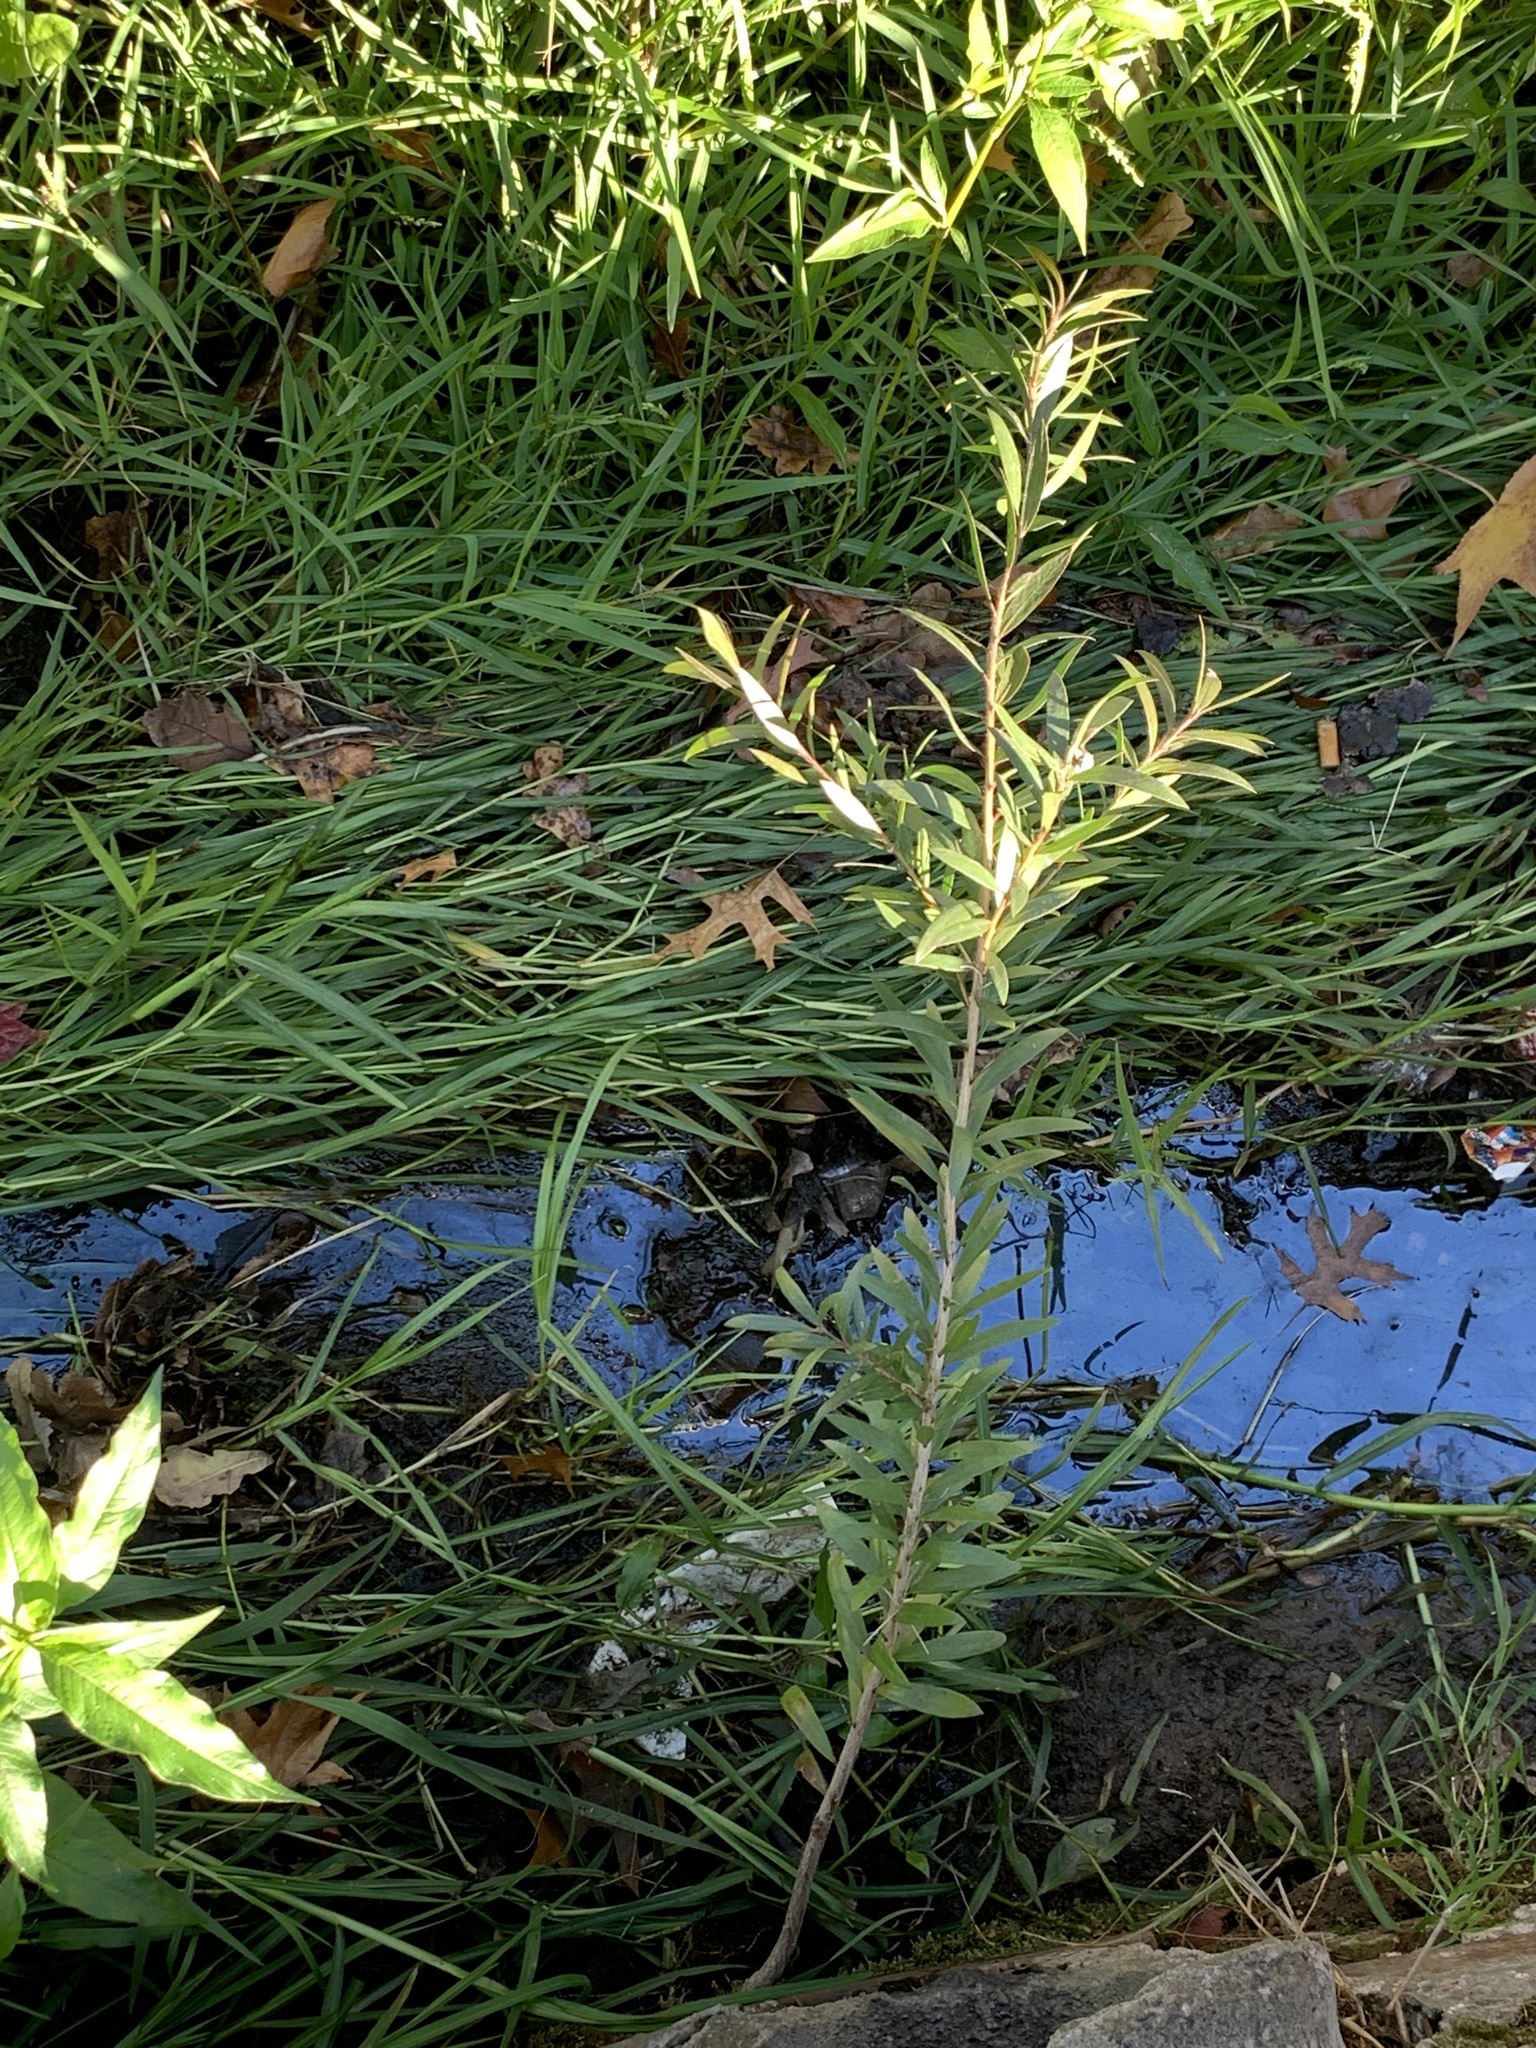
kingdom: Plantae
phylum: Tracheophyta
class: Magnoliopsida
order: Myrtales
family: Myrtaceae
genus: Callistemon
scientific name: Callistemon viminalis
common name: Drooping bottlebrush
